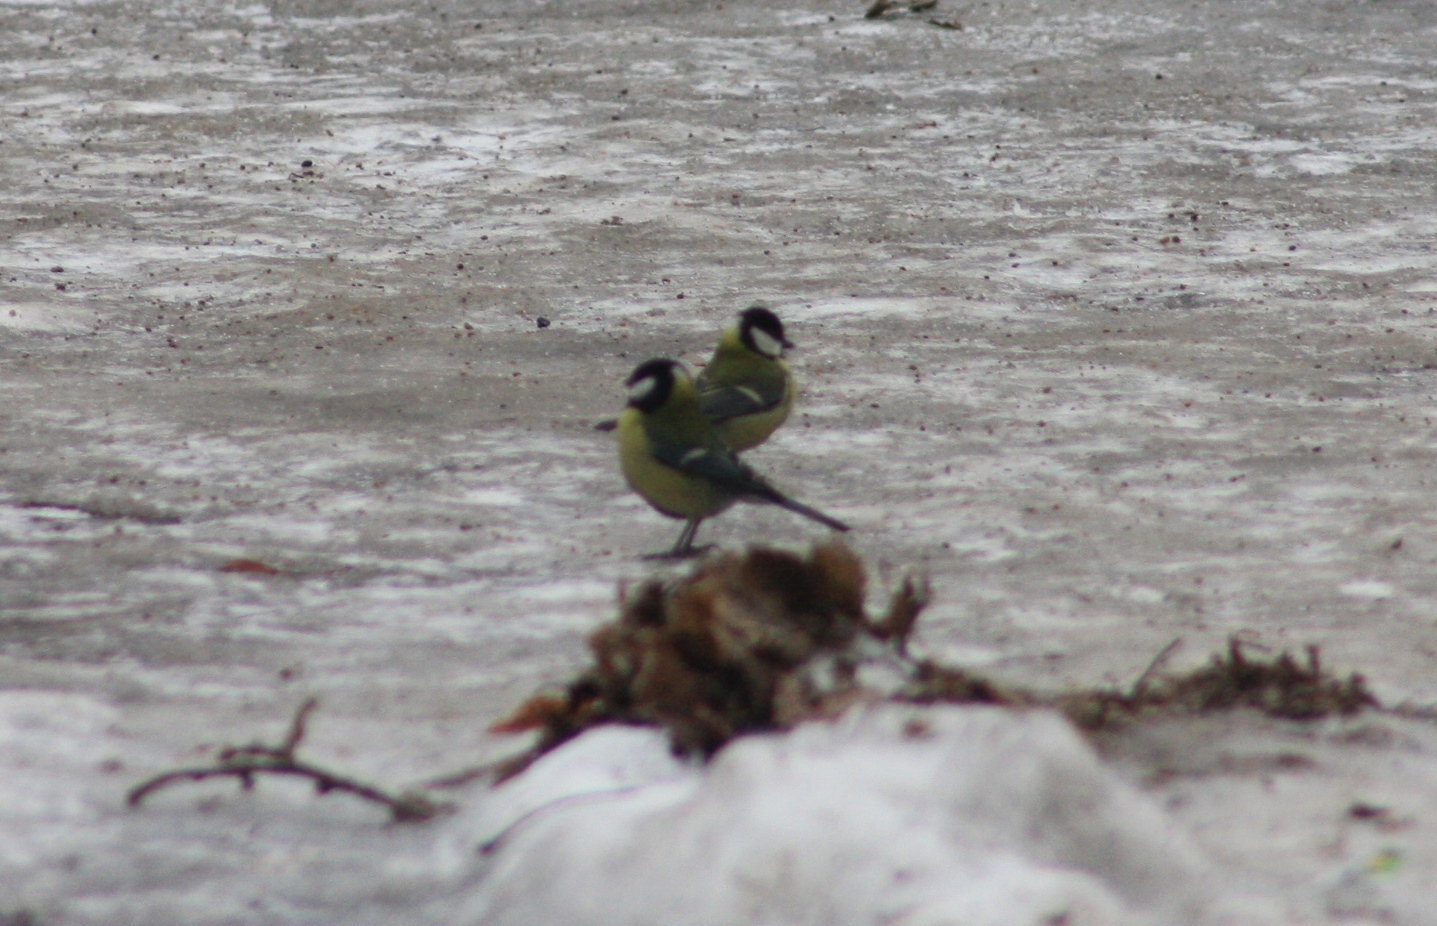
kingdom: Animalia
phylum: Chordata
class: Aves
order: Passeriformes
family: Paridae
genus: Parus
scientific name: Parus major
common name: Great tit
